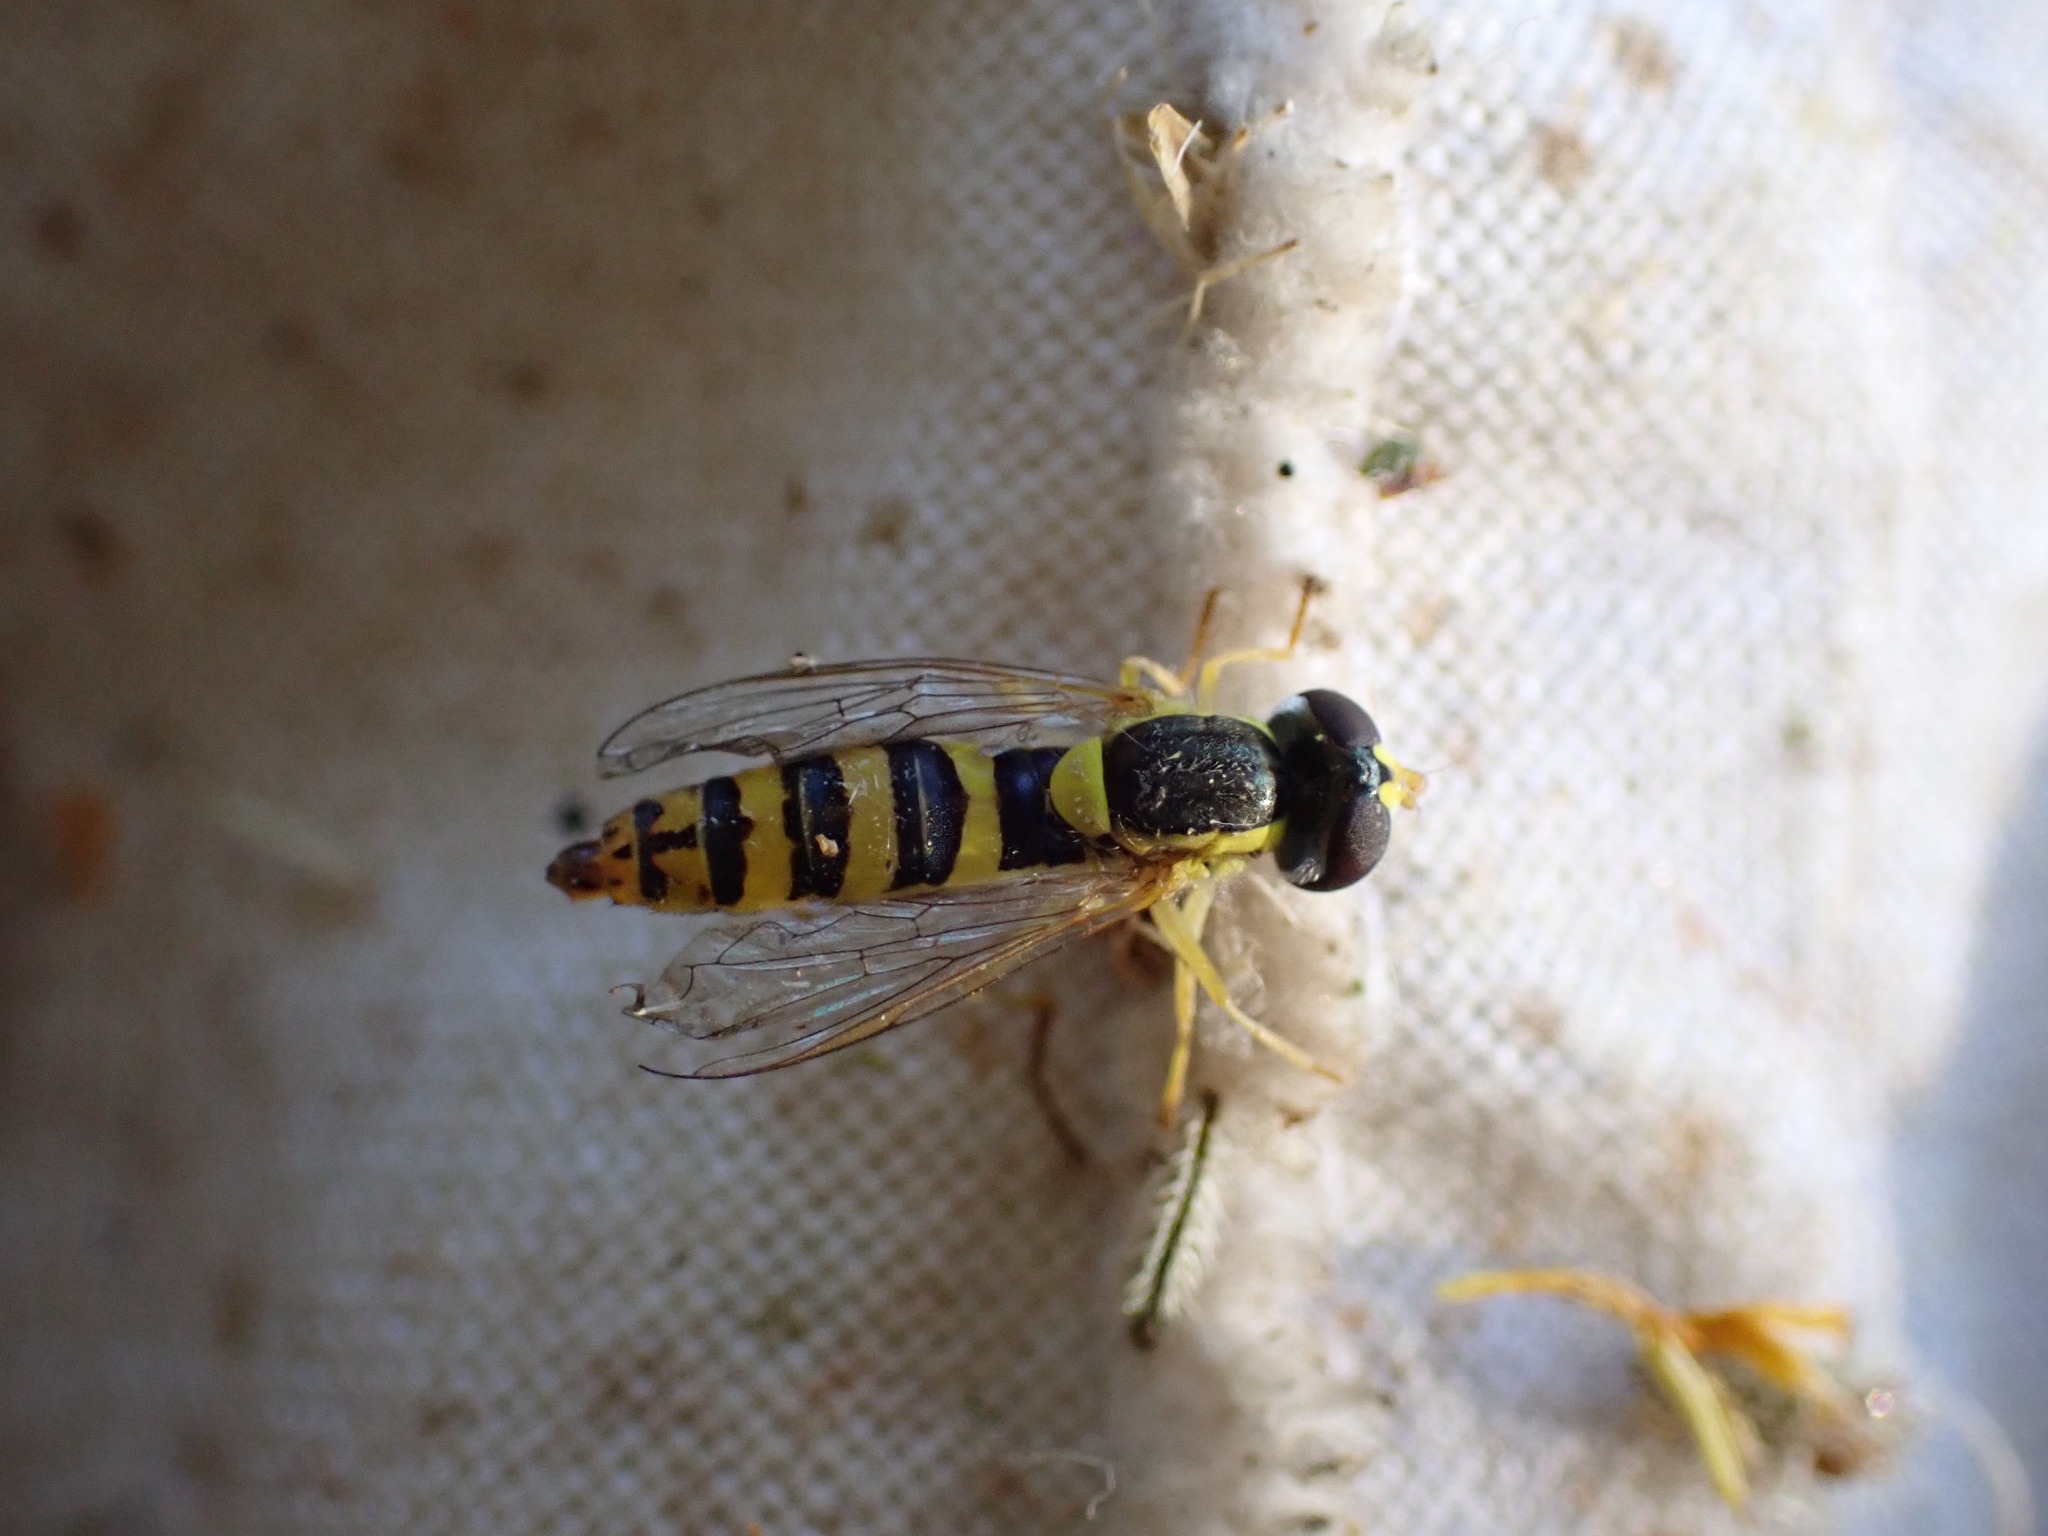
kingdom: Animalia
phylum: Arthropoda
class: Insecta
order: Diptera
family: Syrphidae
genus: Sphaerophoria
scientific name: Sphaerophoria
